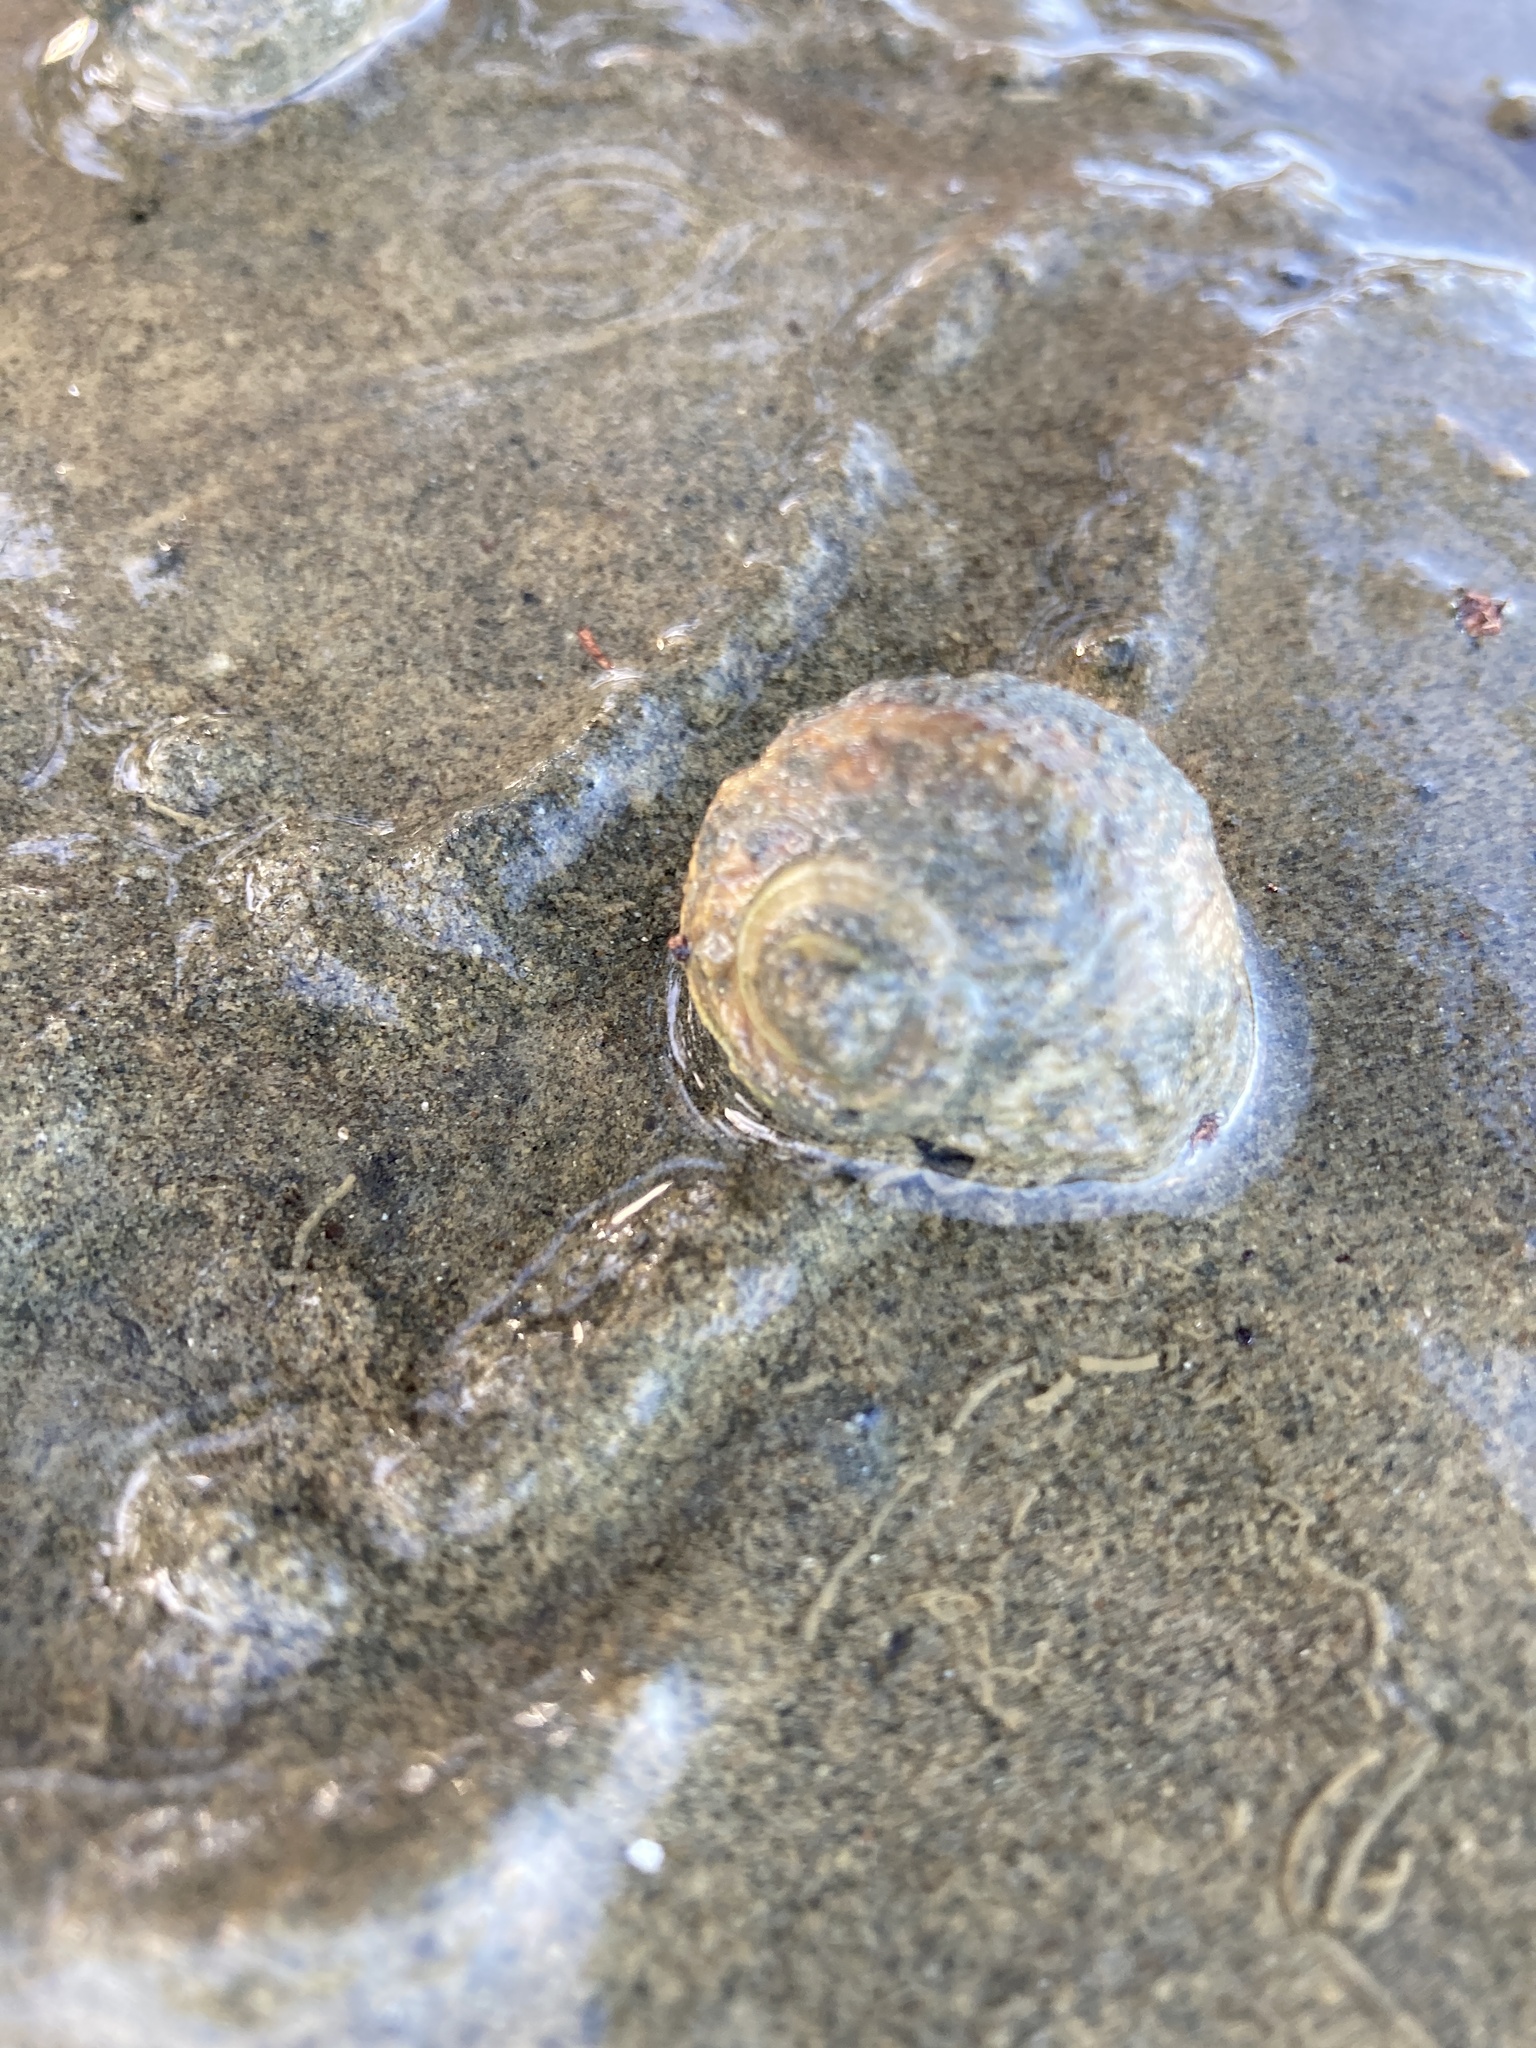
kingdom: Animalia
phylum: Mollusca
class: Gastropoda
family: Amphibolidae
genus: Amphibola
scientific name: Amphibola crenata
